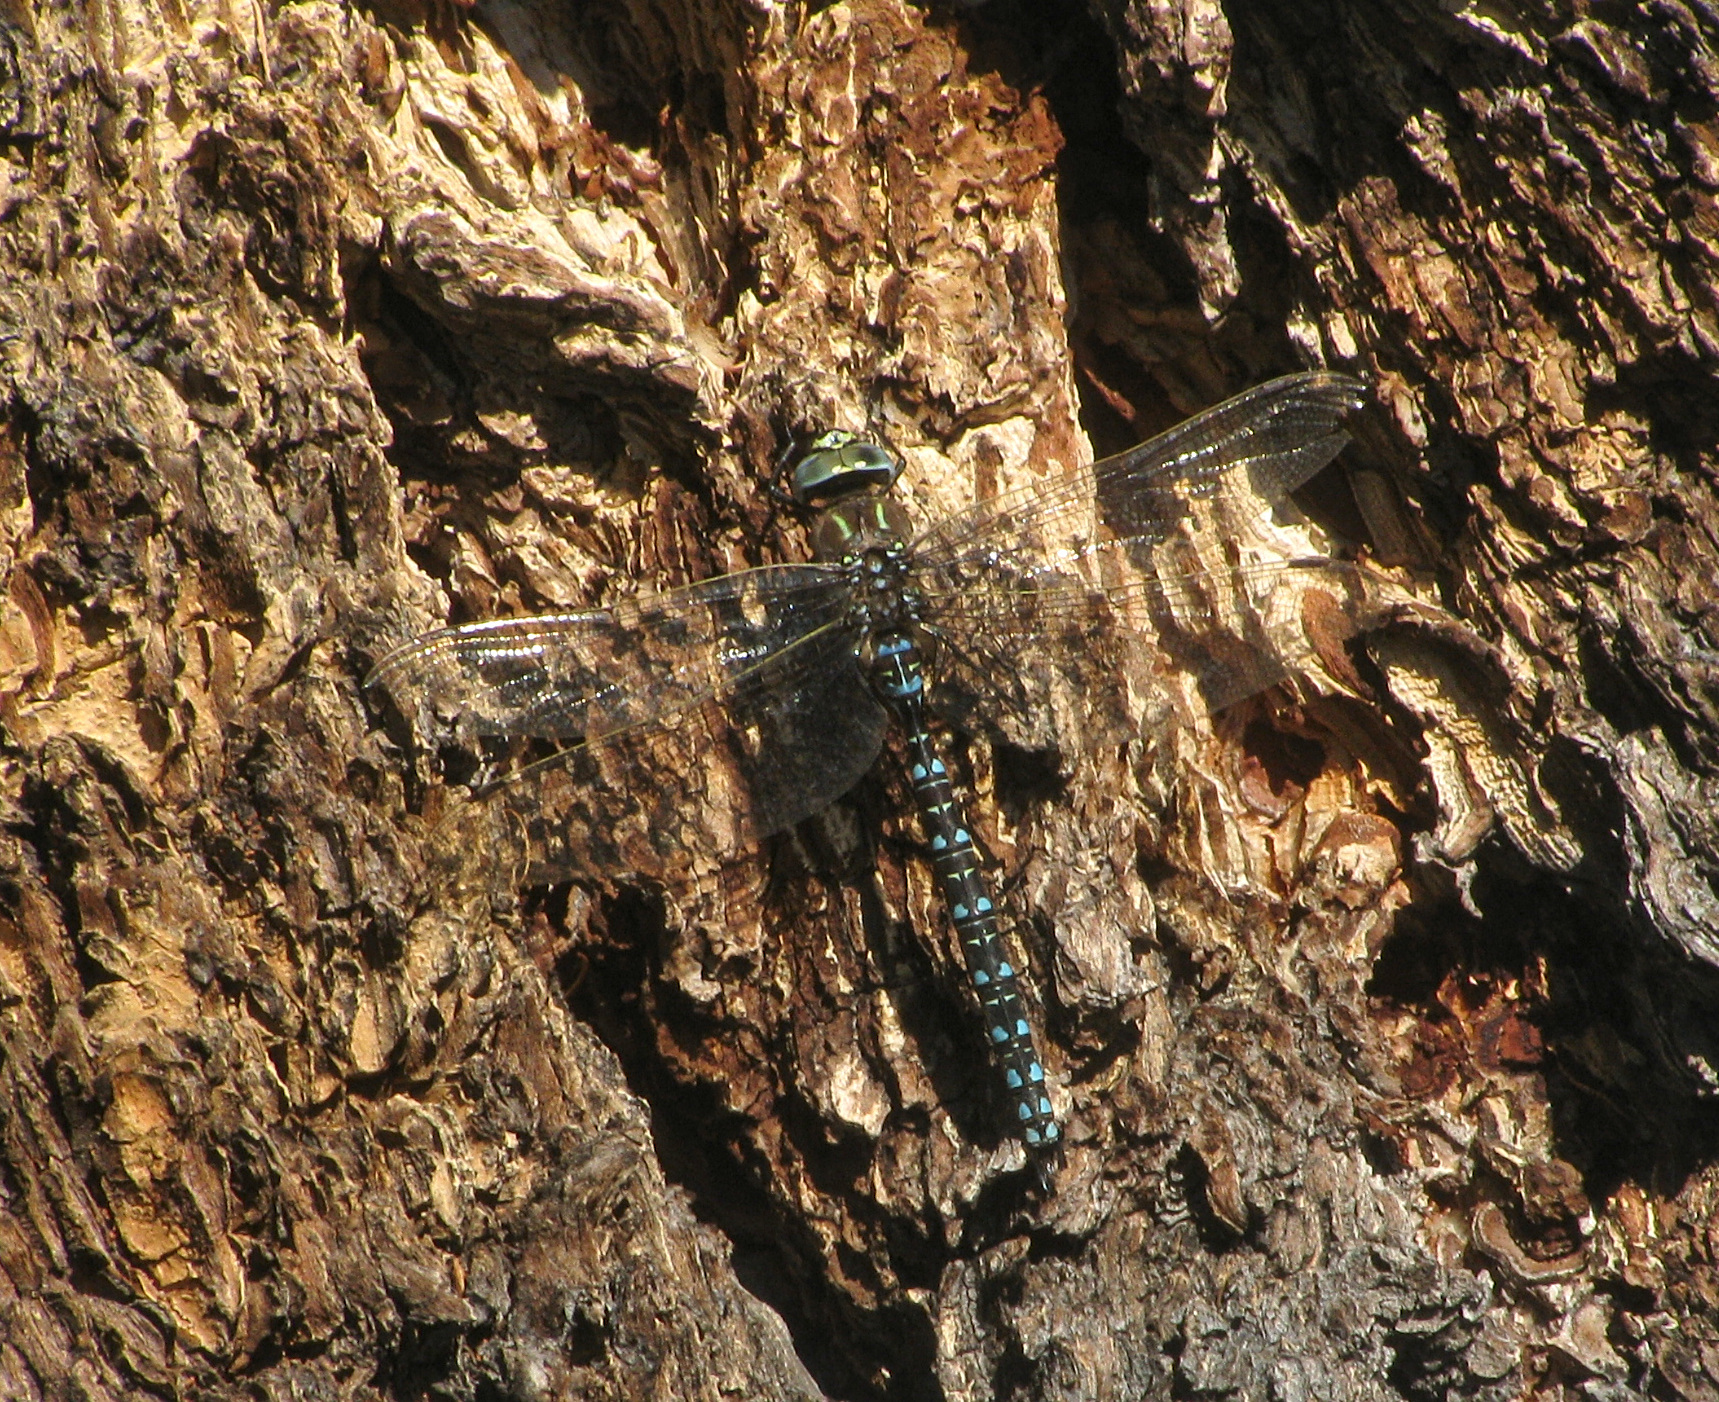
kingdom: Animalia
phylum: Arthropoda
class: Insecta
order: Odonata
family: Aeshnidae
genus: Aeshna
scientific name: Aeshna juncea
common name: Moorland hawker
